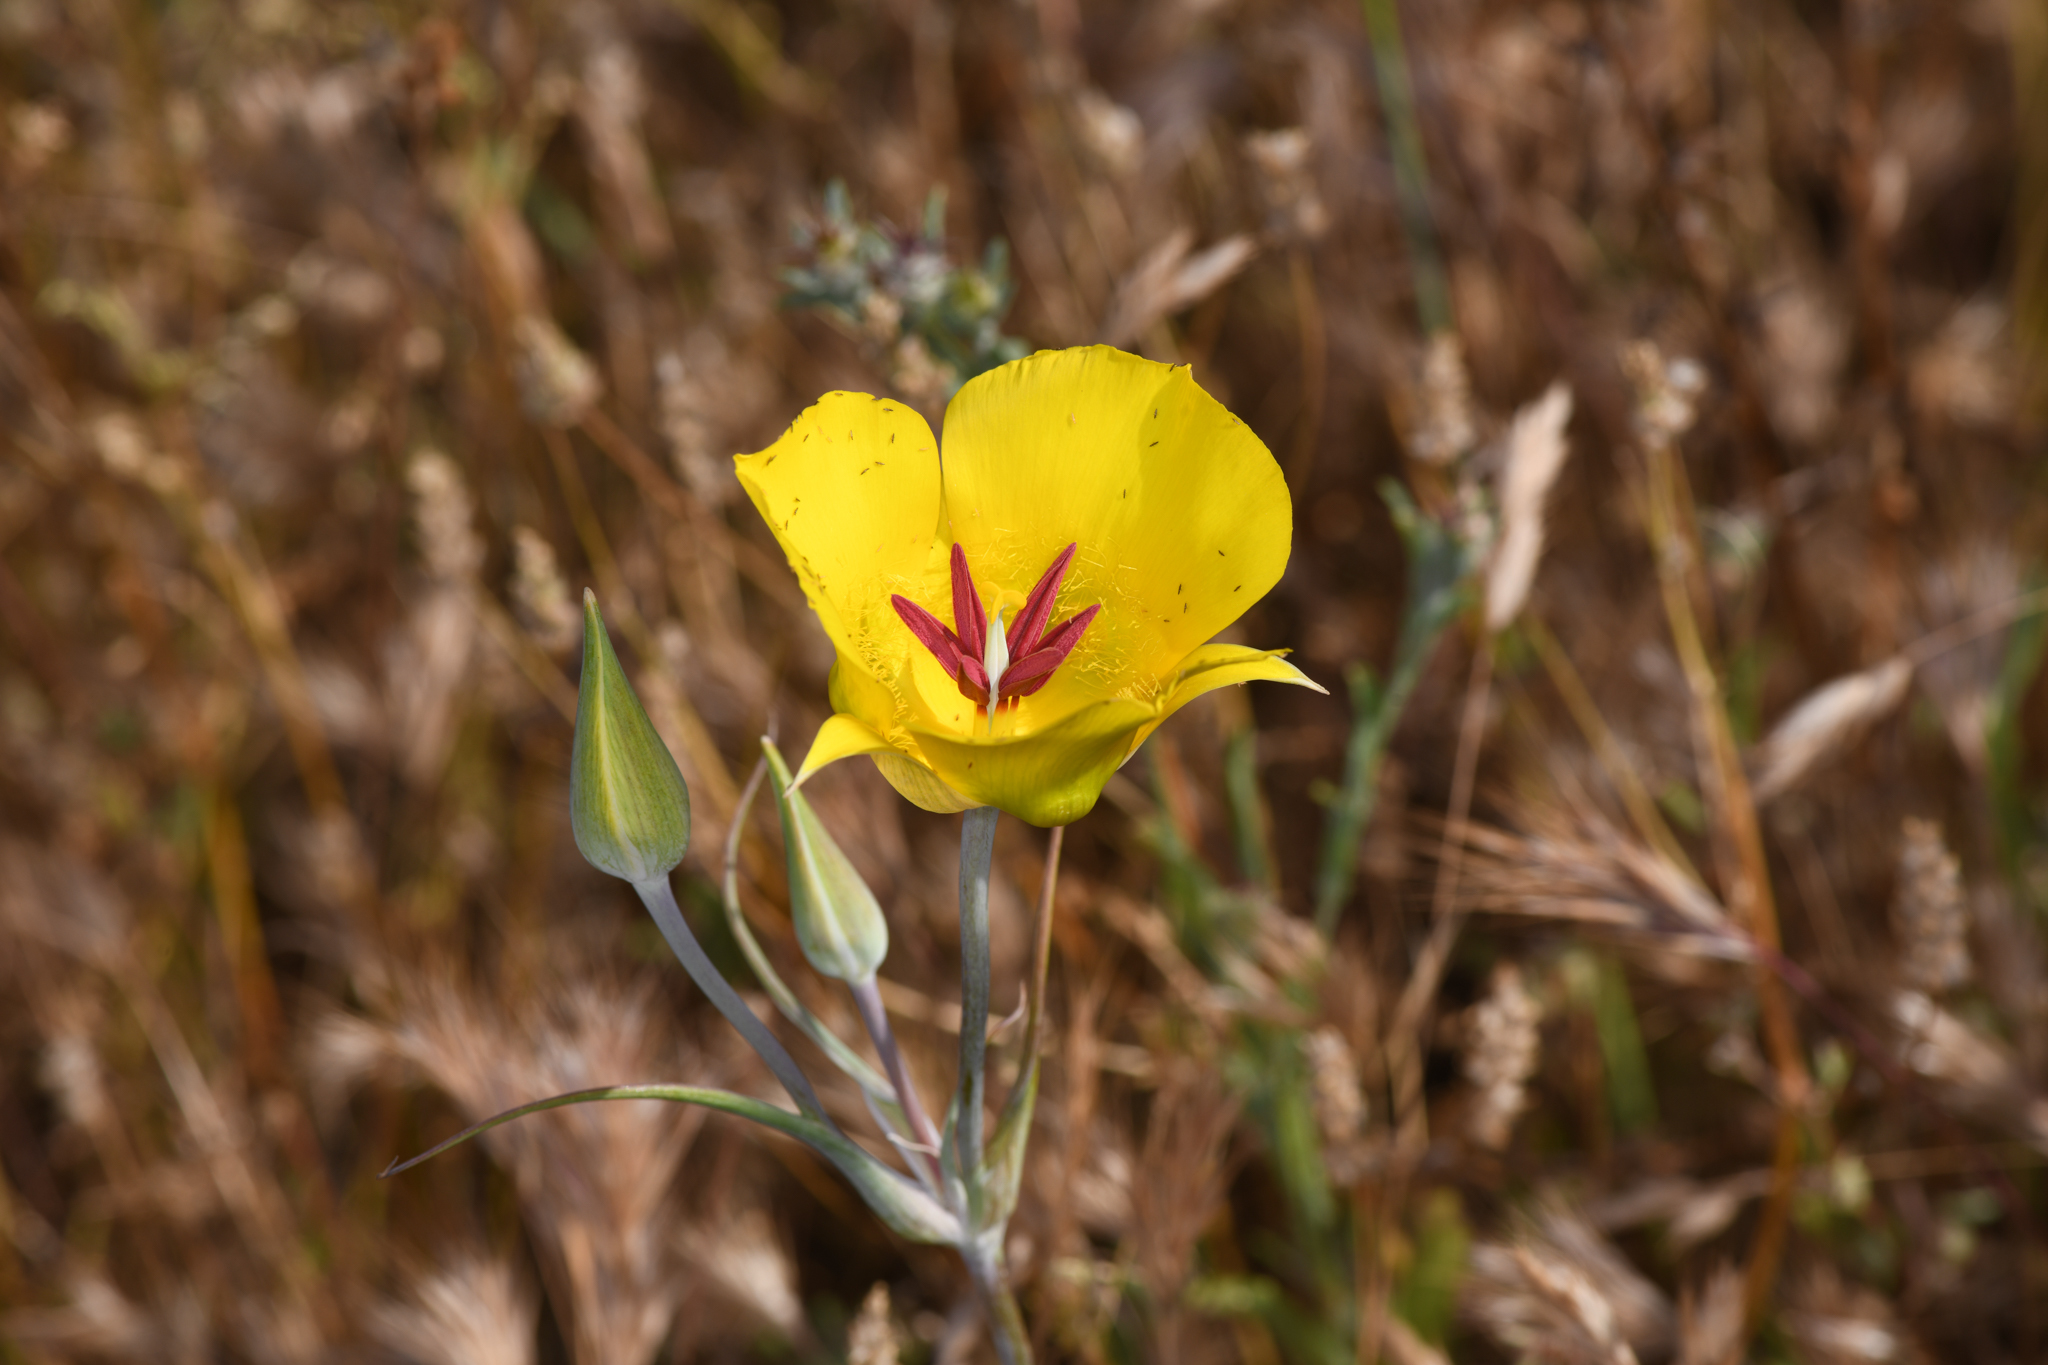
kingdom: Plantae
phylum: Tracheophyta
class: Liliopsida
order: Liliales
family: Liliaceae
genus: Calochortus
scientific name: Calochortus clavatus
